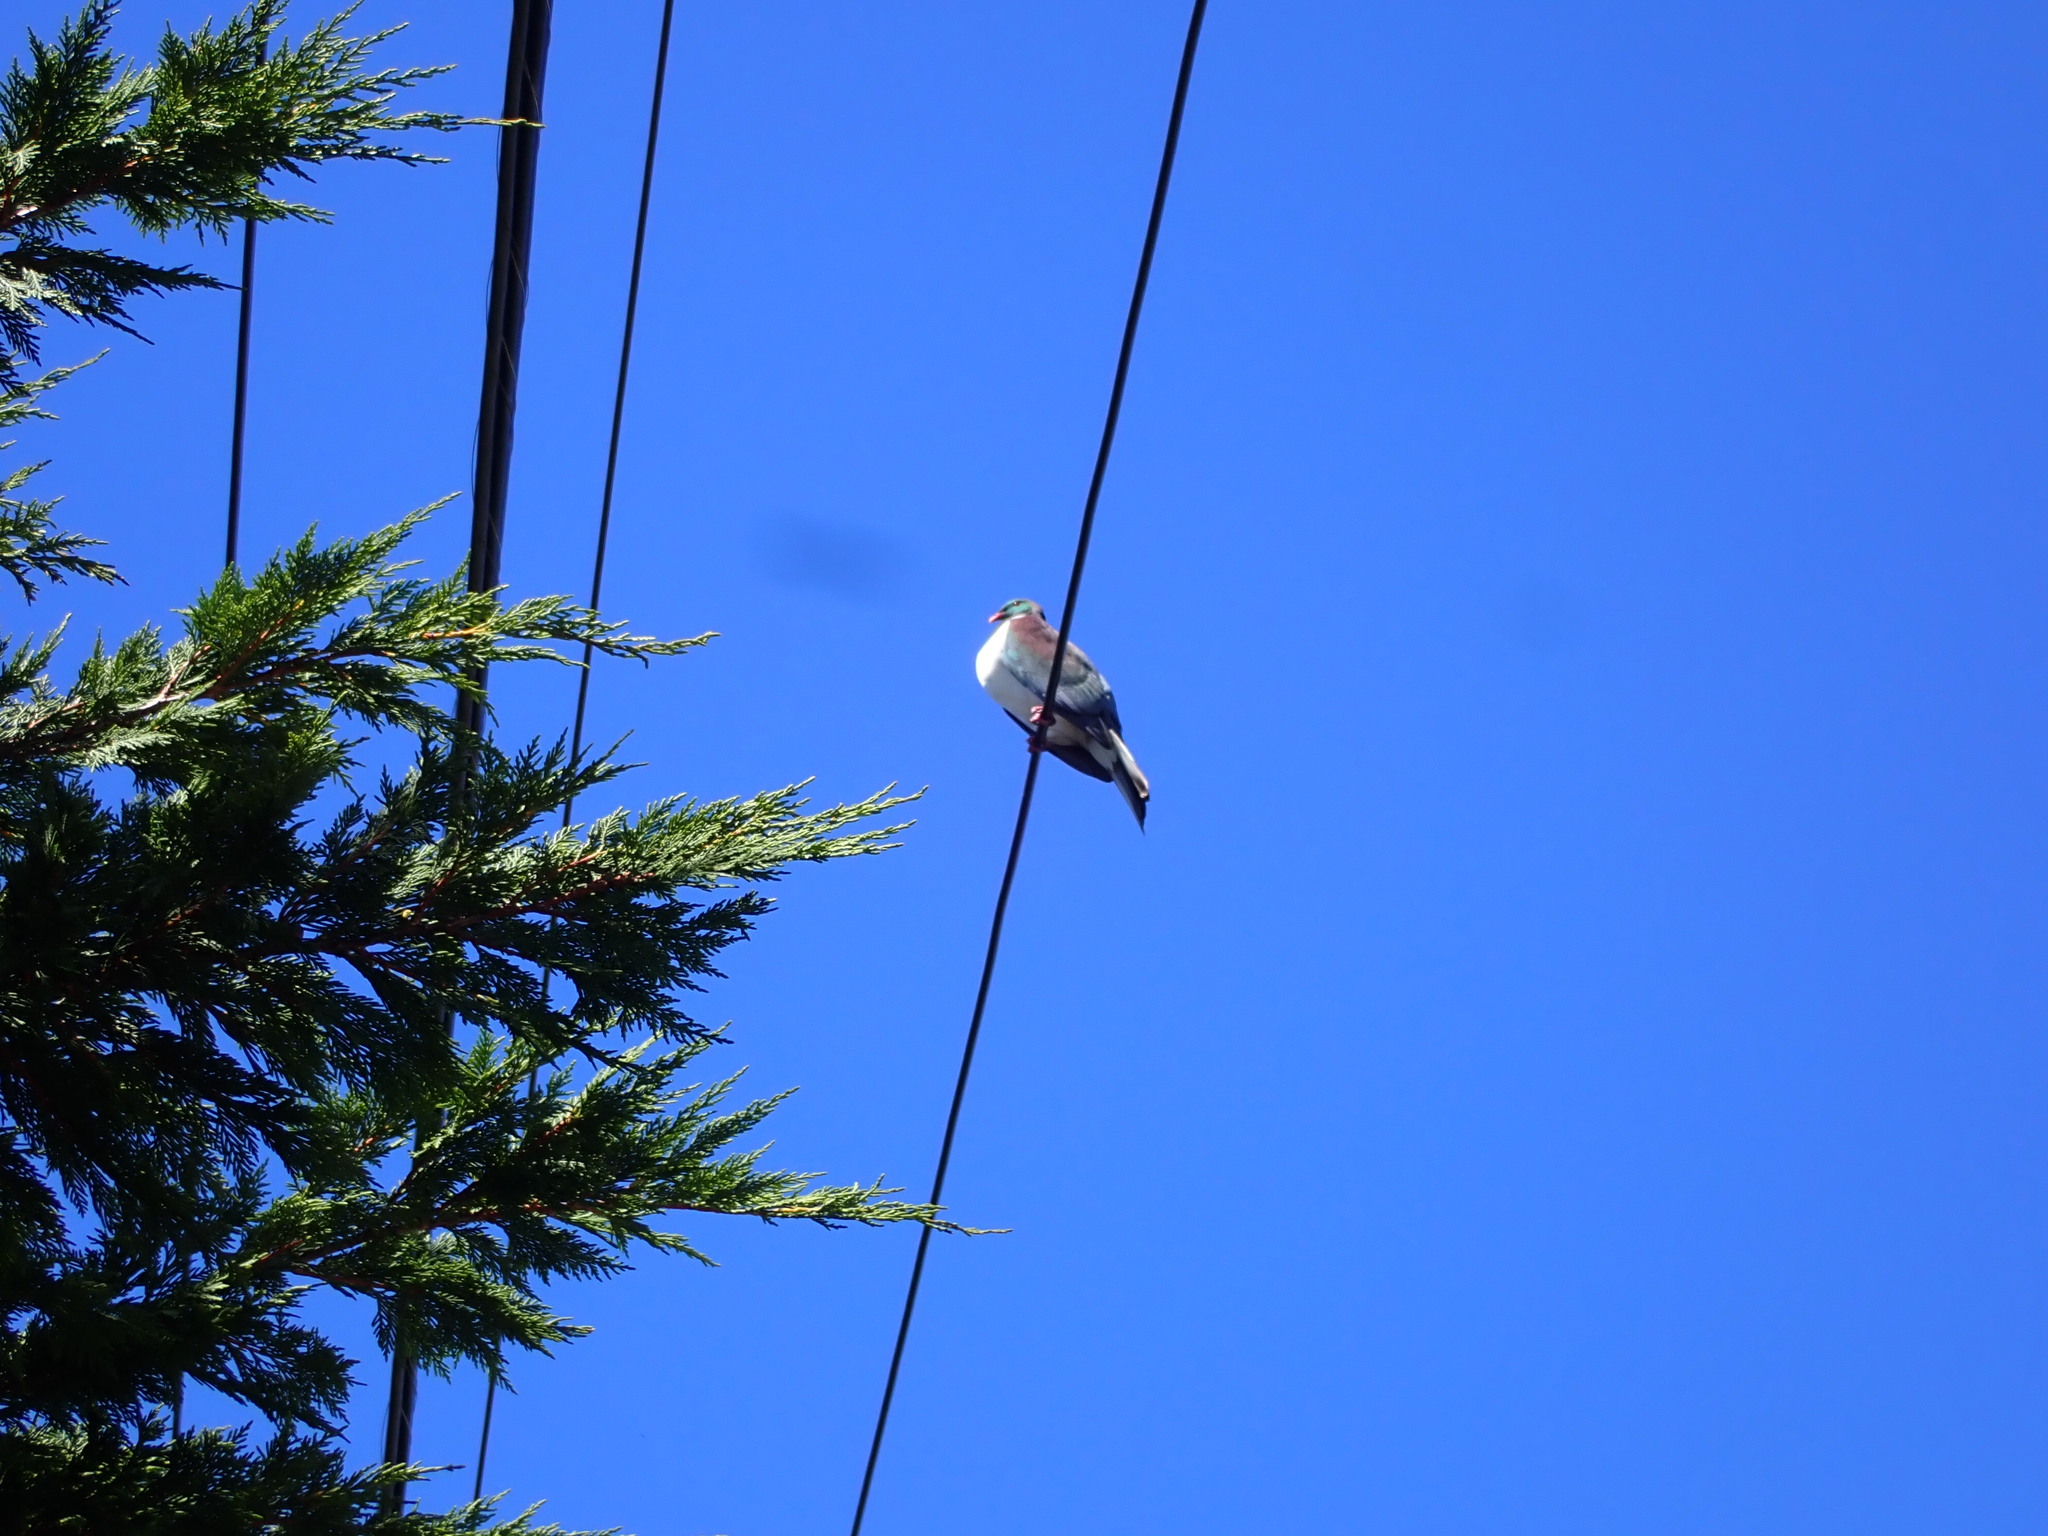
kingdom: Animalia
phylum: Chordata
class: Aves
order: Columbiformes
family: Columbidae
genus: Hemiphaga
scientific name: Hemiphaga novaeseelandiae
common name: New zealand pigeon
